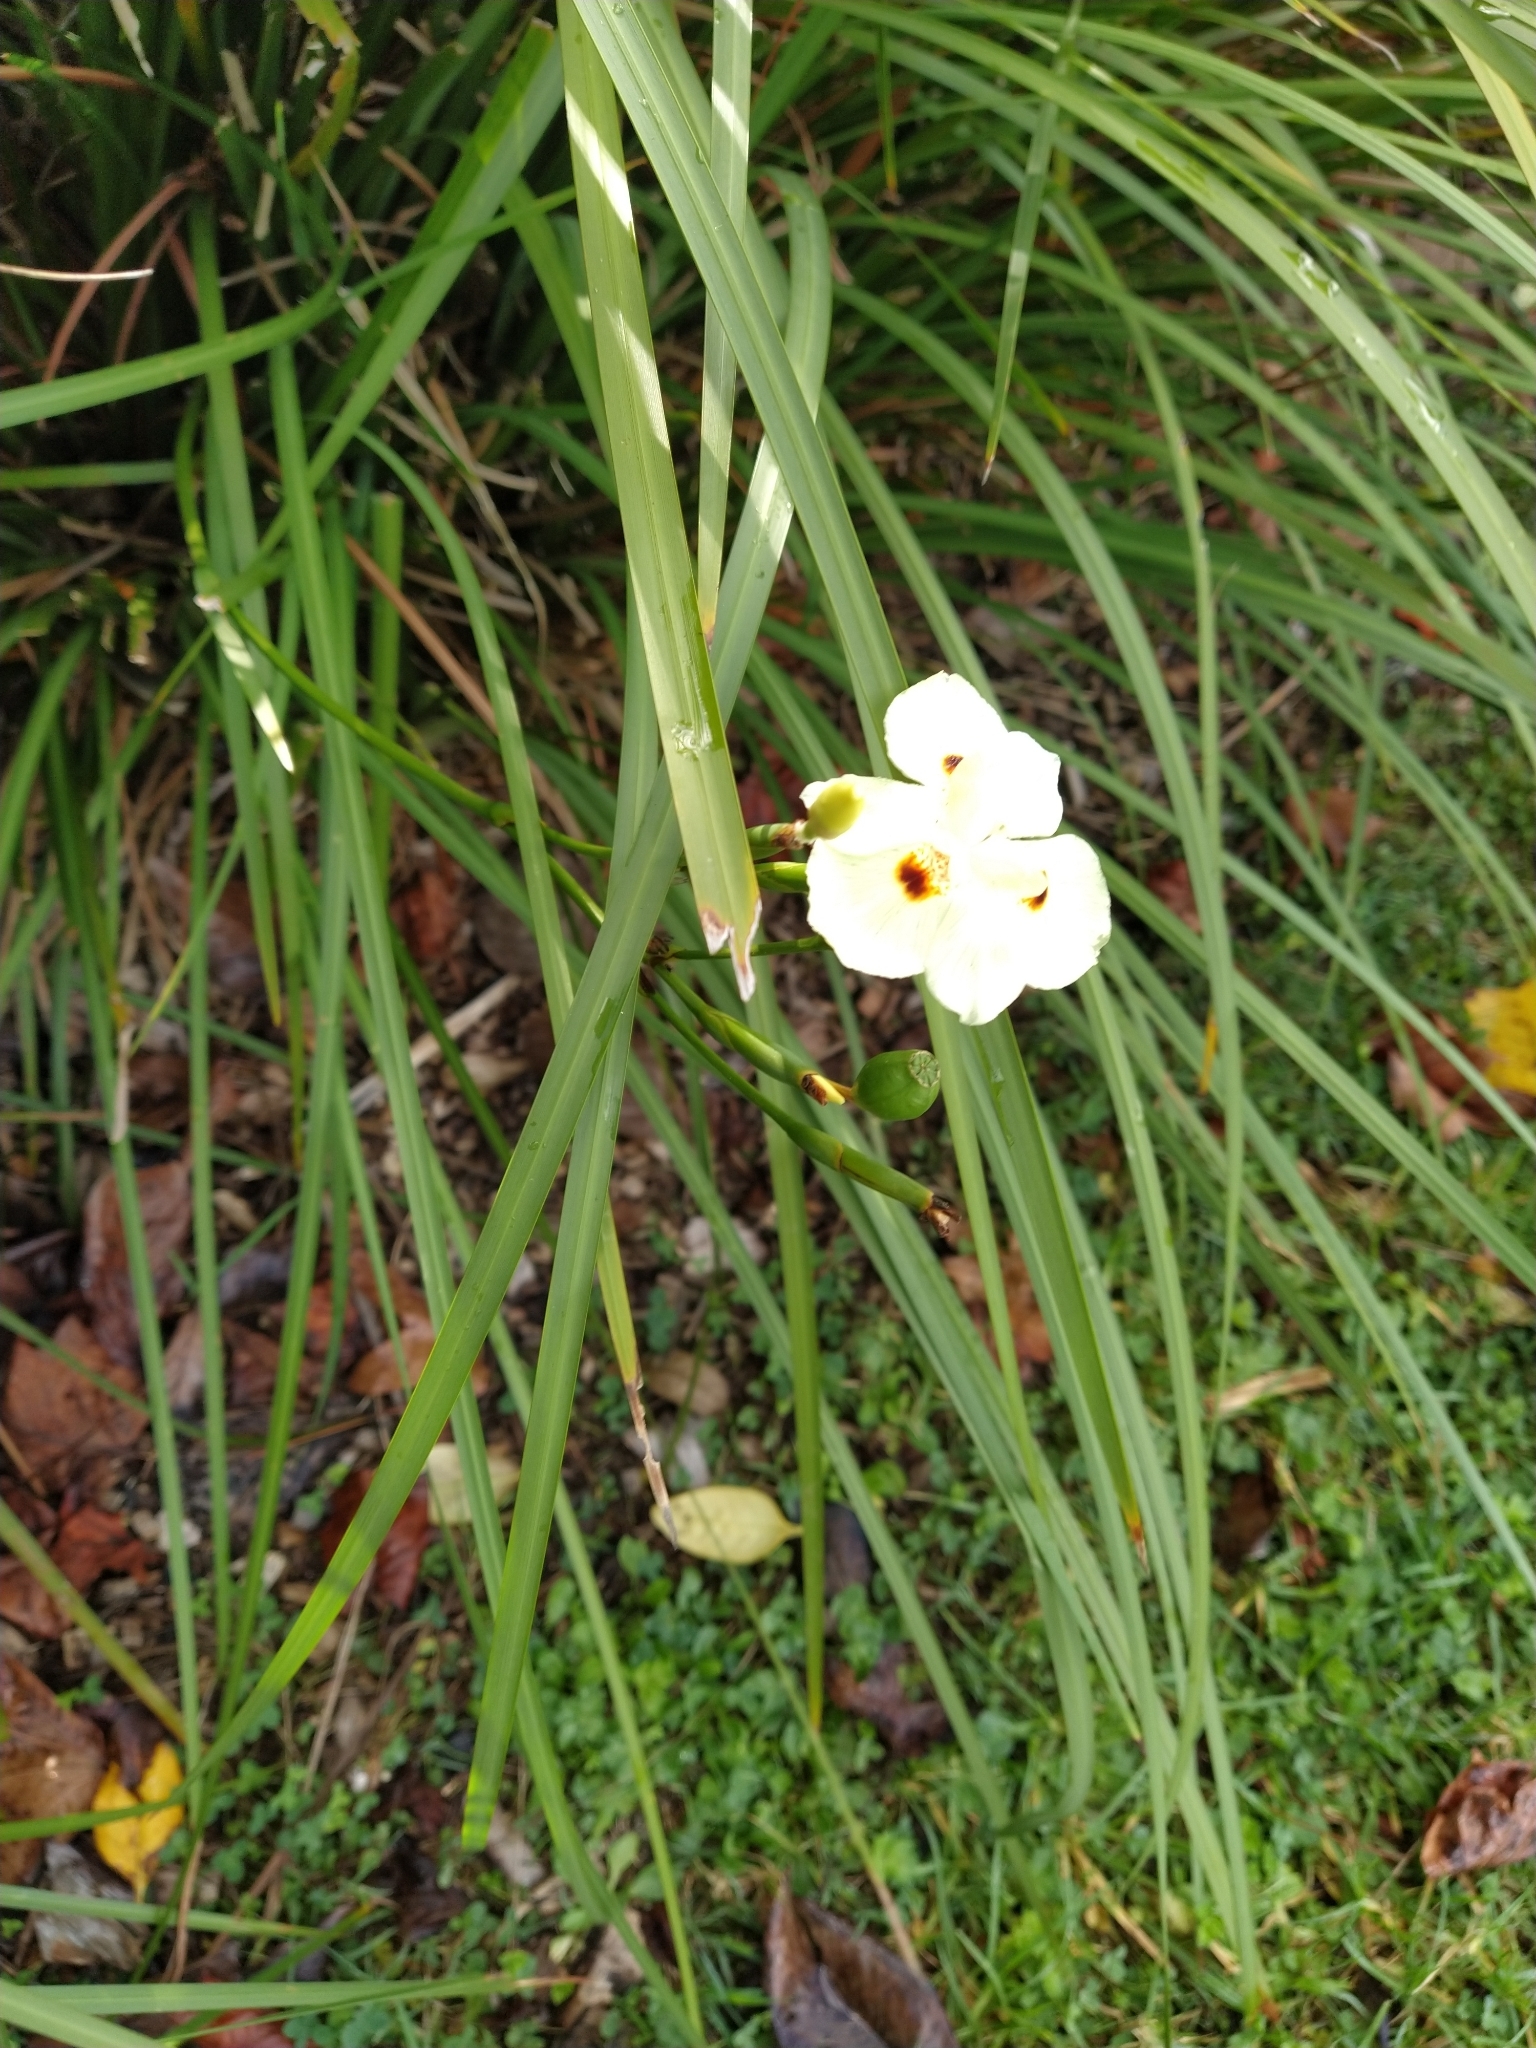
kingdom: Plantae
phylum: Tracheophyta
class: Liliopsida
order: Asparagales
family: Iridaceae
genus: Dietes
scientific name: Dietes bicolor
